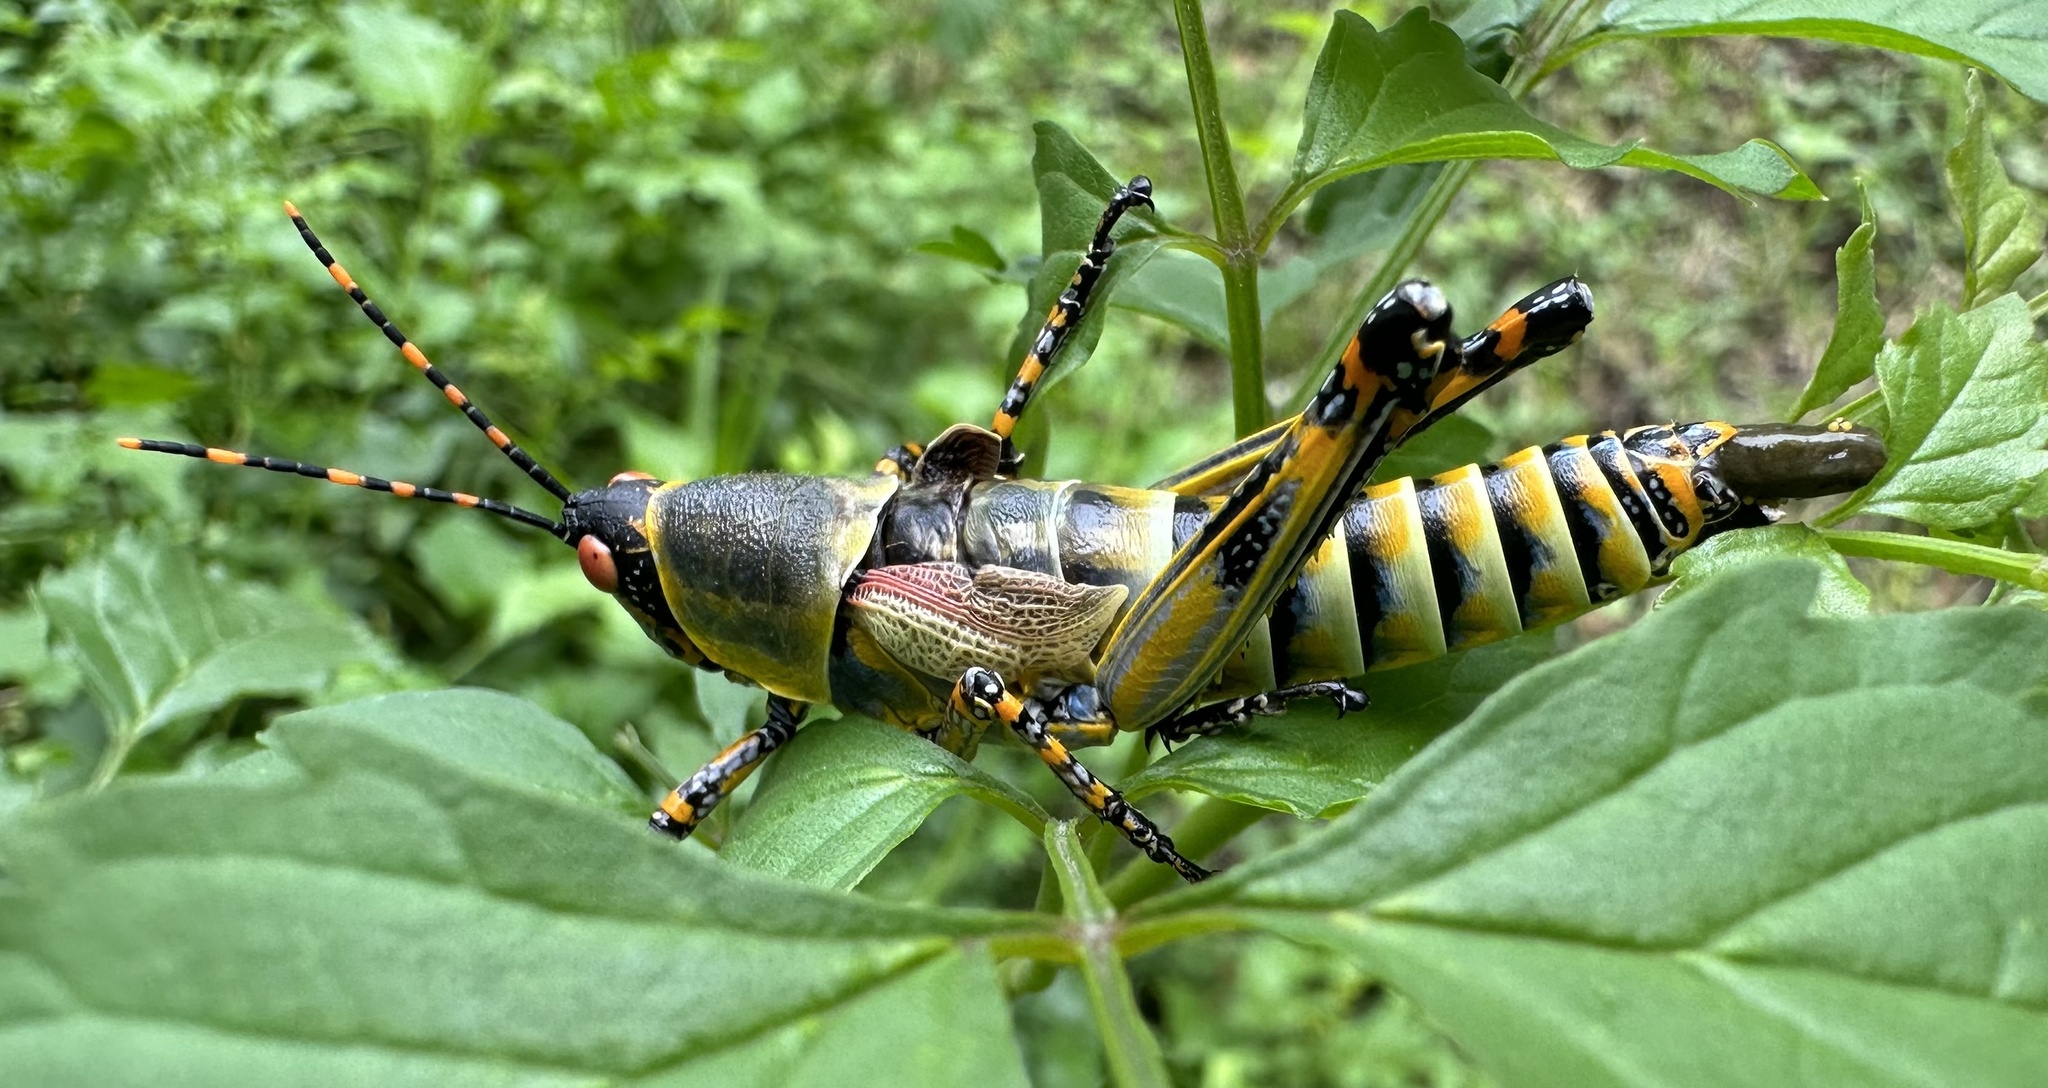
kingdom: Animalia
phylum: Arthropoda
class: Insecta
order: Orthoptera
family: Pyrgomorphidae
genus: Zonocerus
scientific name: Zonocerus elegans
